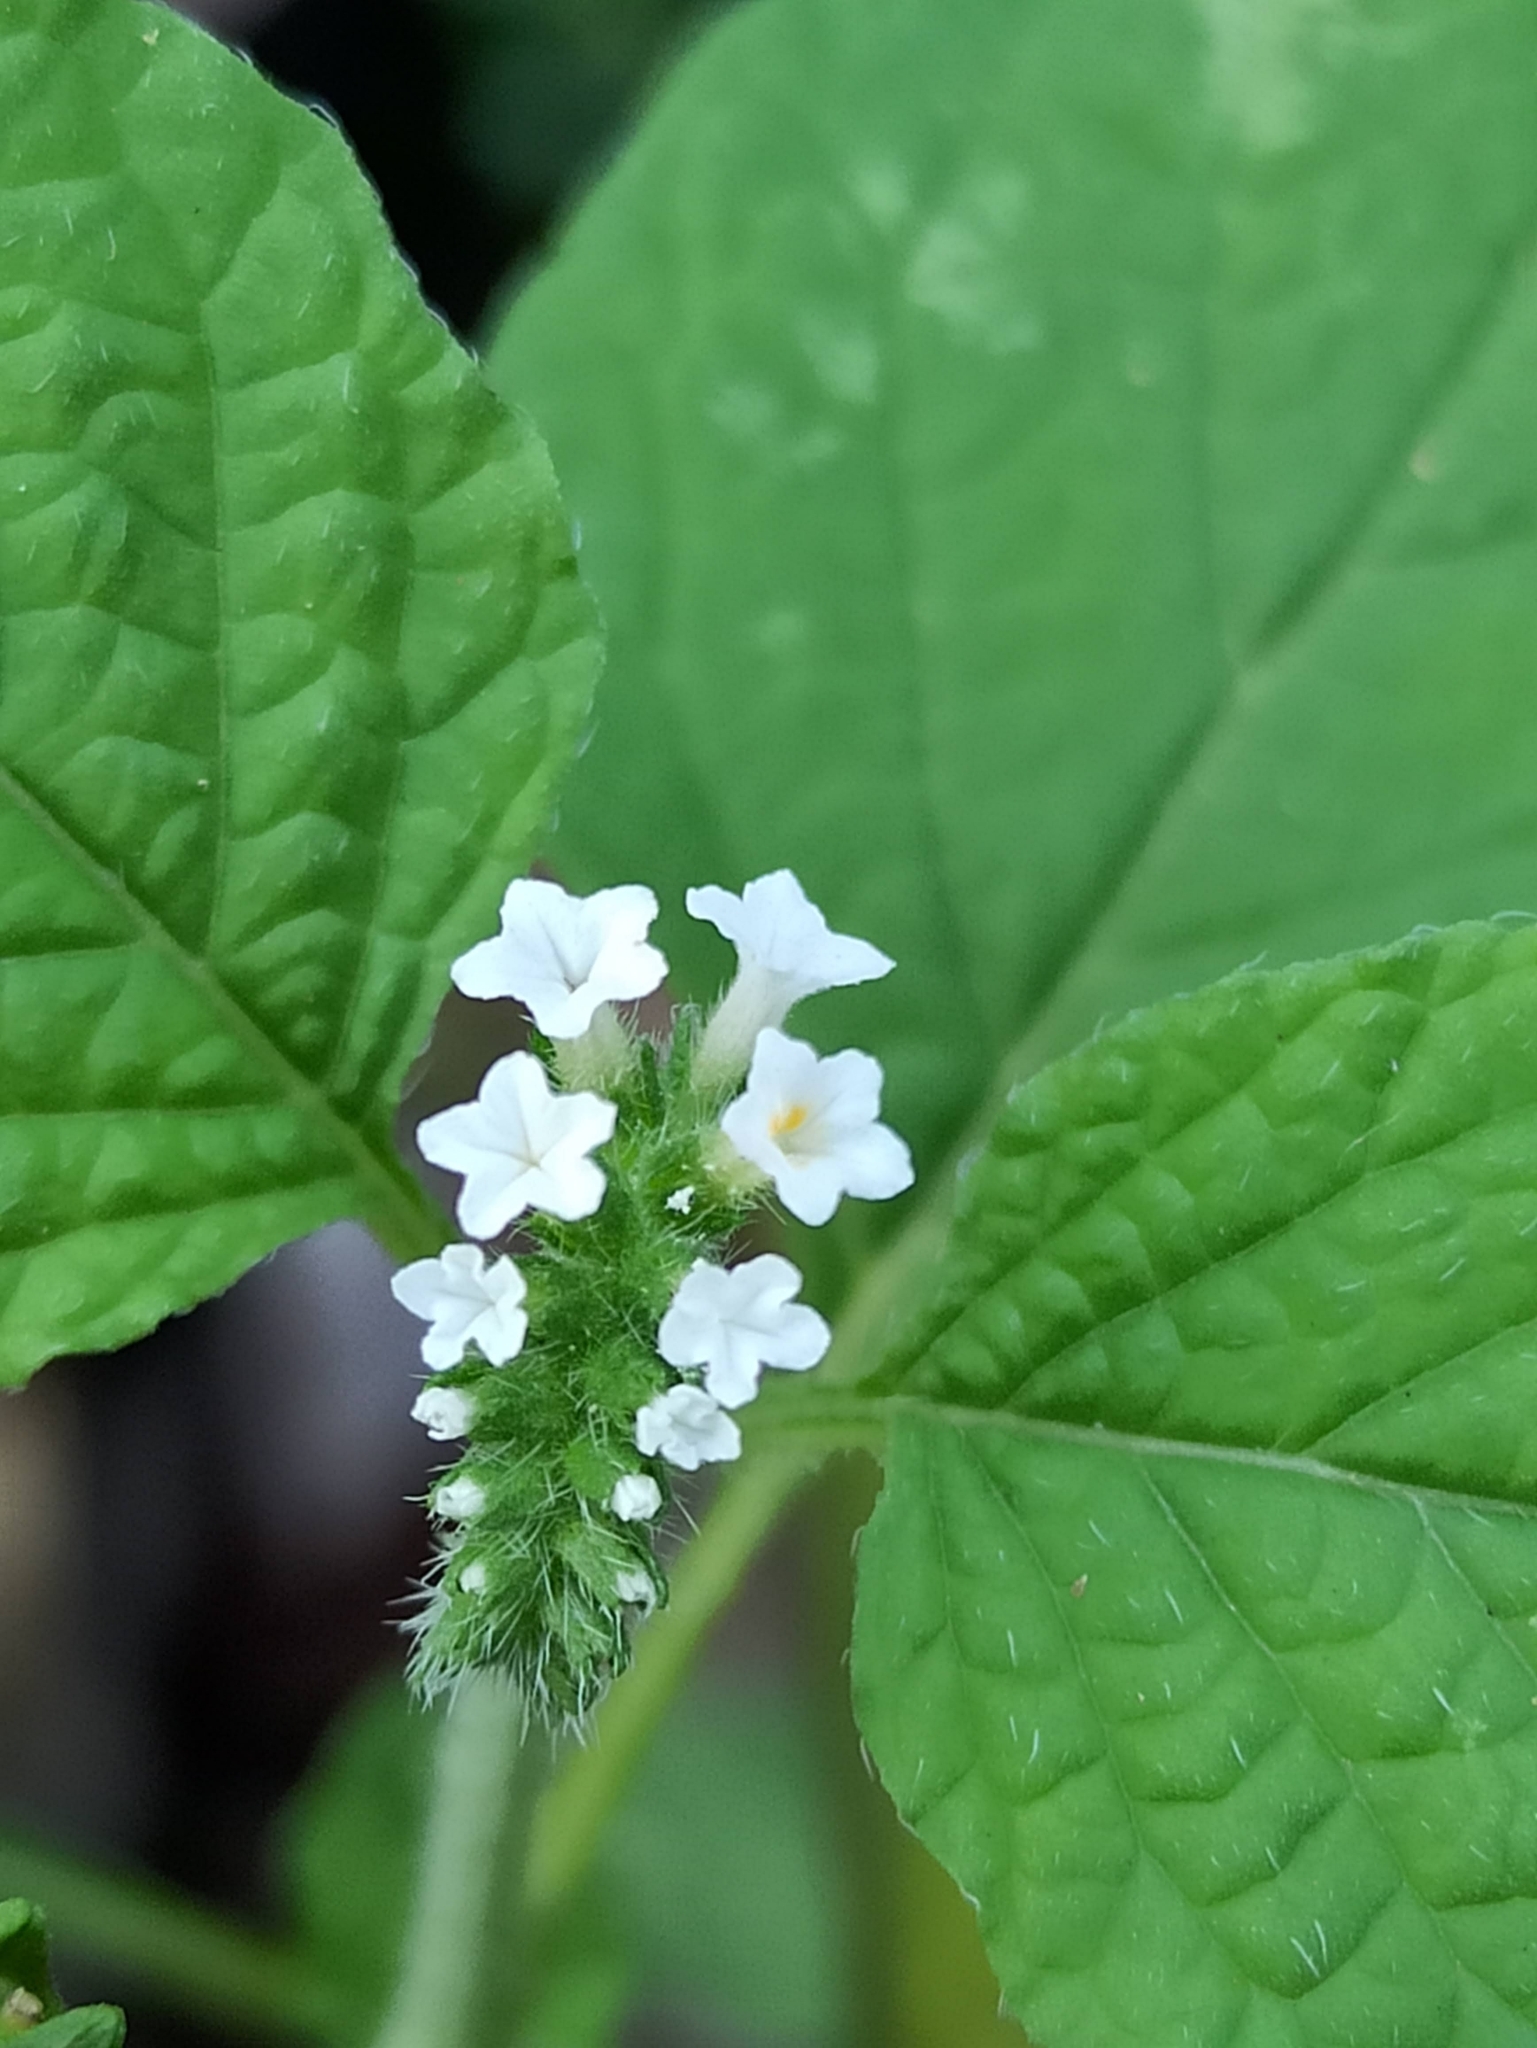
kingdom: Plantae
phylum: Tracheophyta
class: Magnoliopsida
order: Boraginales
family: Heliotropiaceae
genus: Heliotropium
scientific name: Heliotropium indicum
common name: Indian heliotrope
